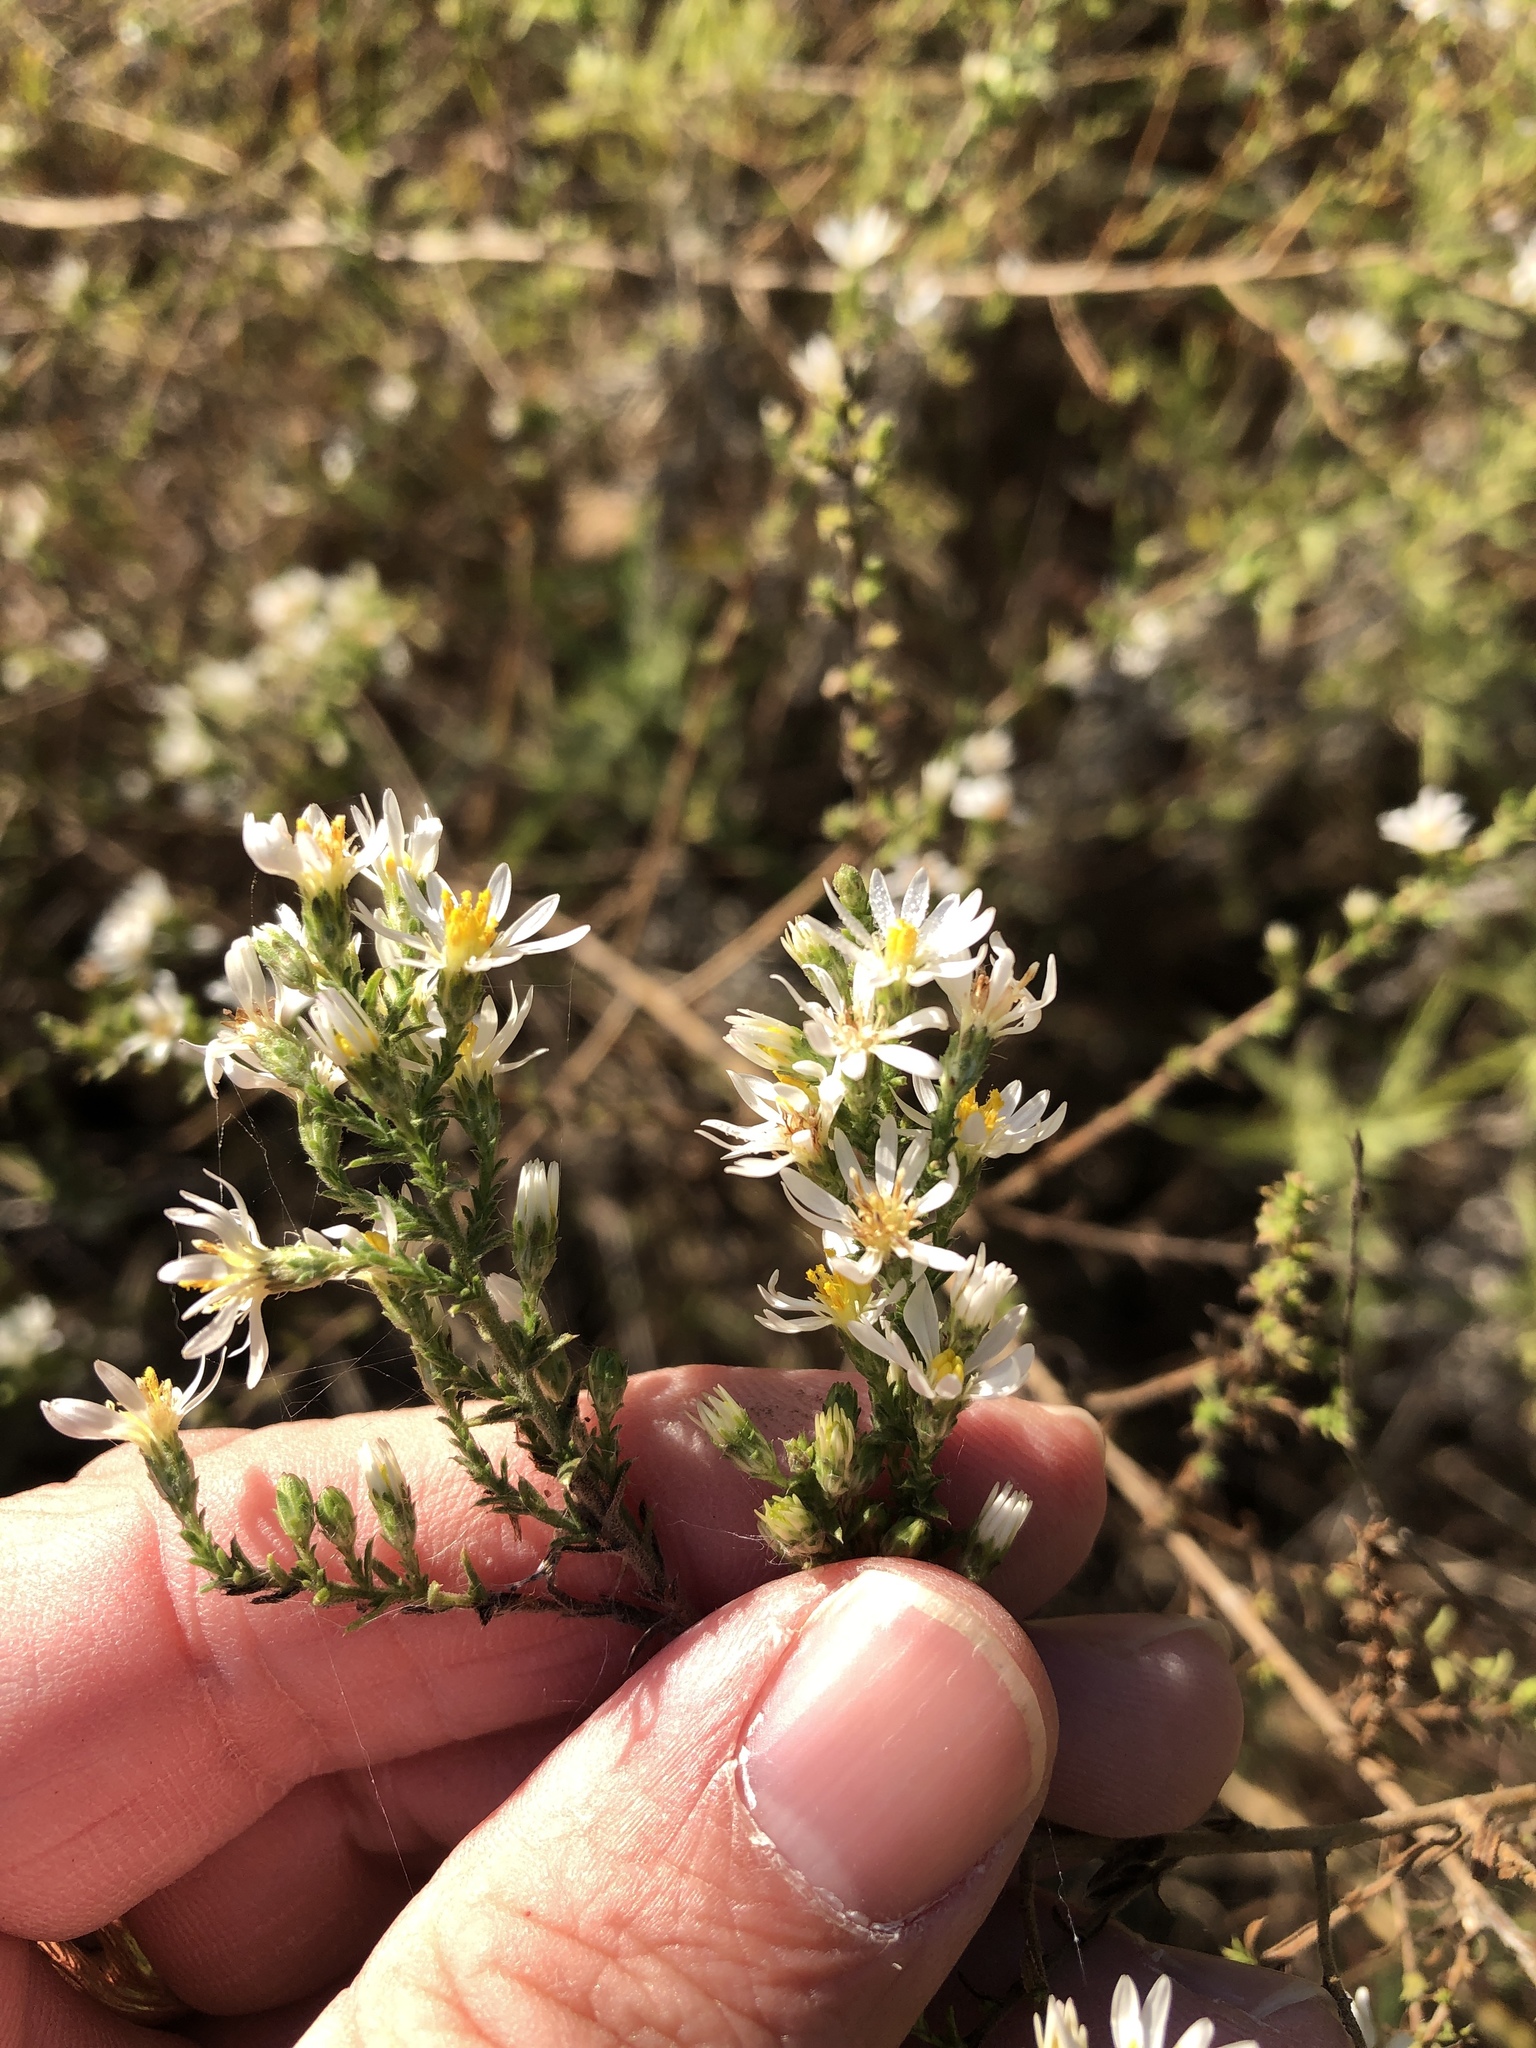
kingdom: Plantae
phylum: Tracheophyta
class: Magnoliopsida
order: Asterales
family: Asteraceae
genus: Symphyotrichum
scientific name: Symphyotrichum ericoides
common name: Heath aster
